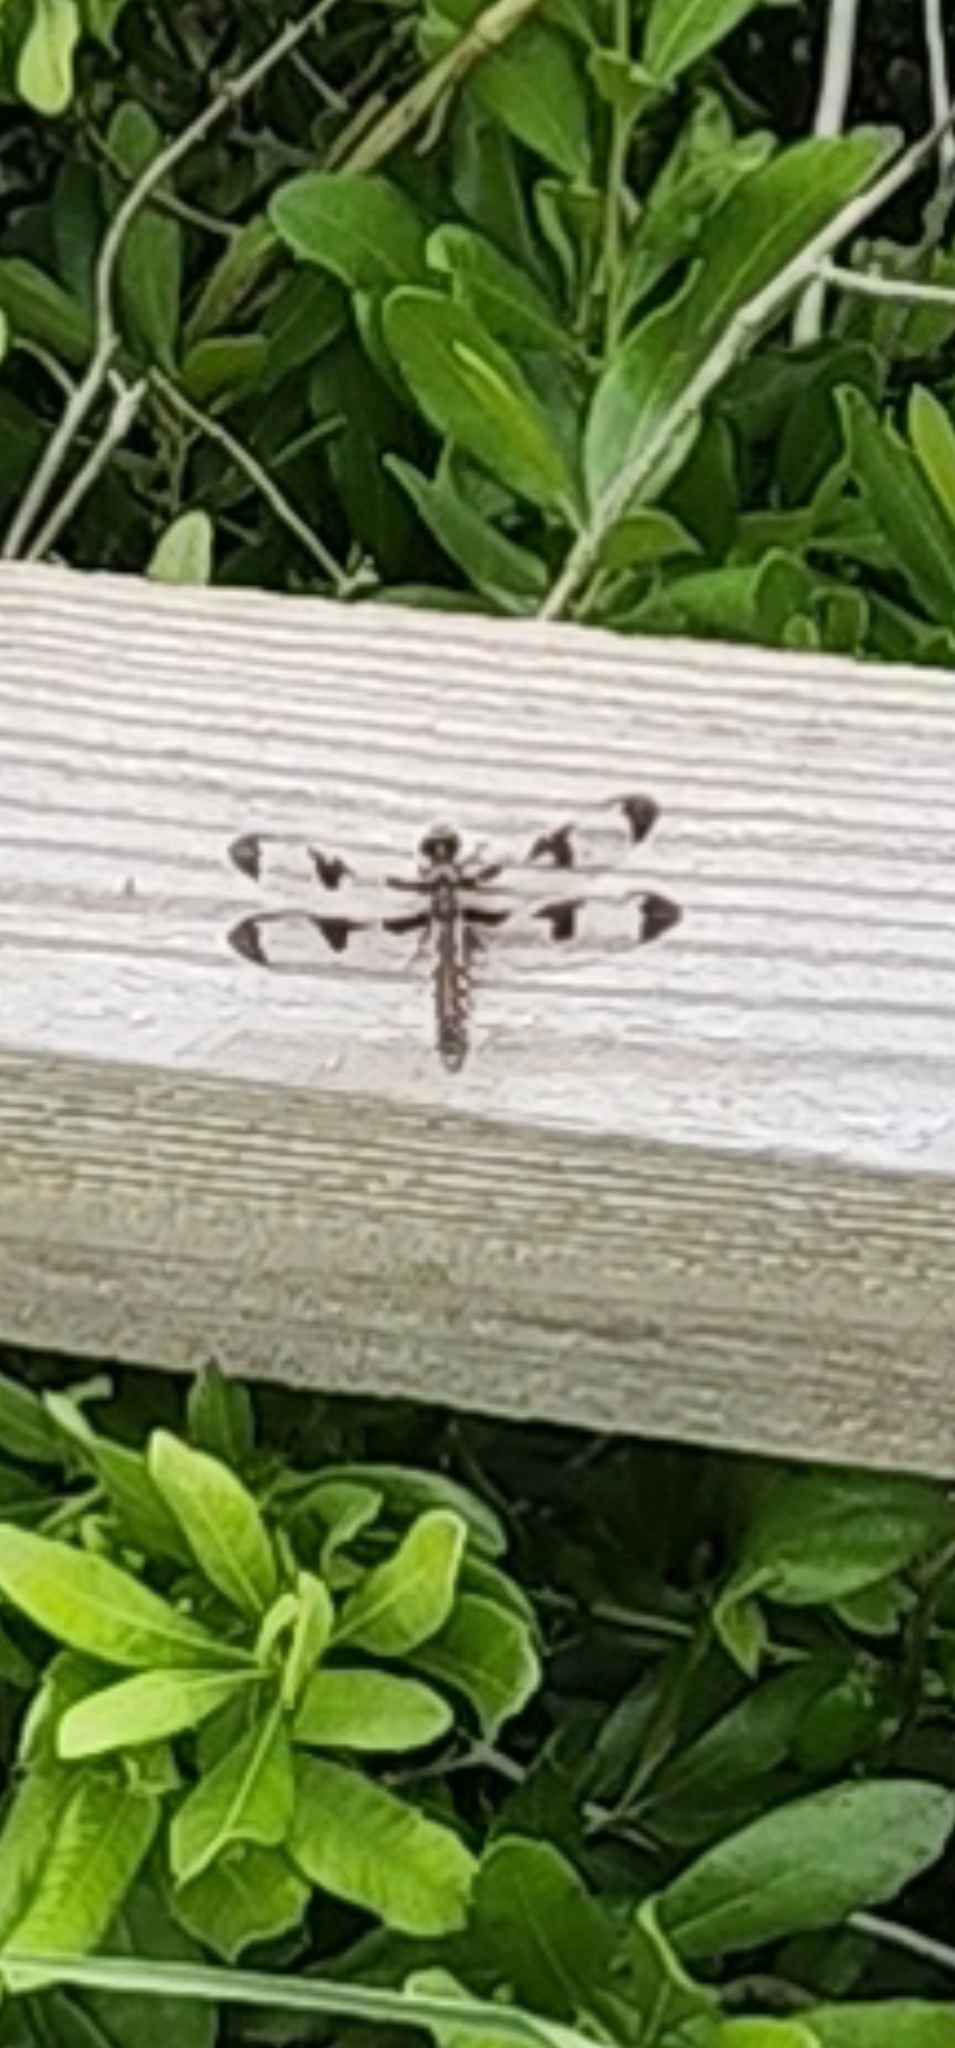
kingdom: Animalia
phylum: Arthropoda
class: Insecta
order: Odonata
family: Libellulidae
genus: Plathemis
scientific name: Plathemis lydia
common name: Common whitetail
